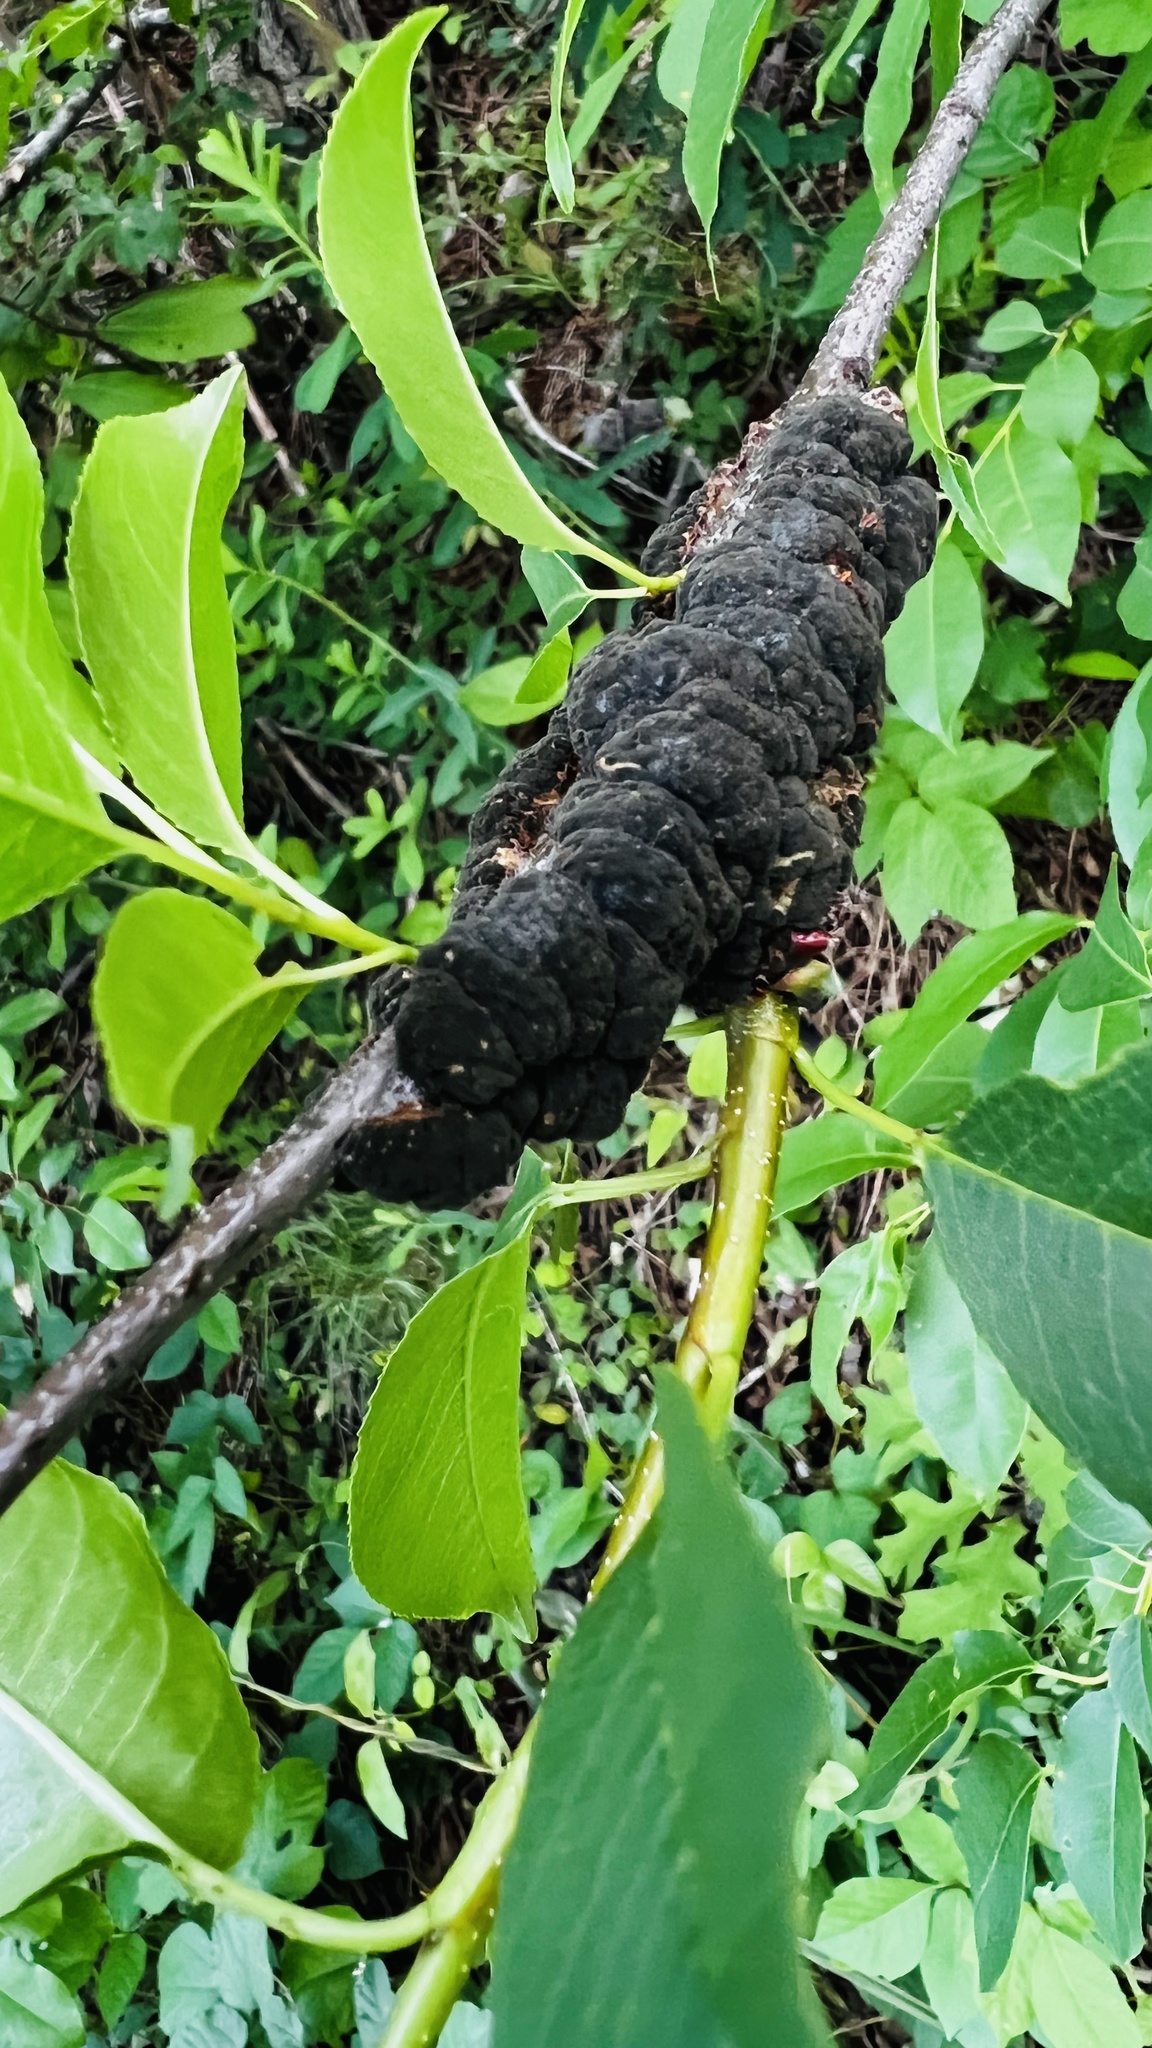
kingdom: Fungi
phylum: Ascomycota
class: Dothideomycetes
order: Venturiales
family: Venturiaceae
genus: Apiosporina
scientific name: Apiosporina morbosa
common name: Black knot
